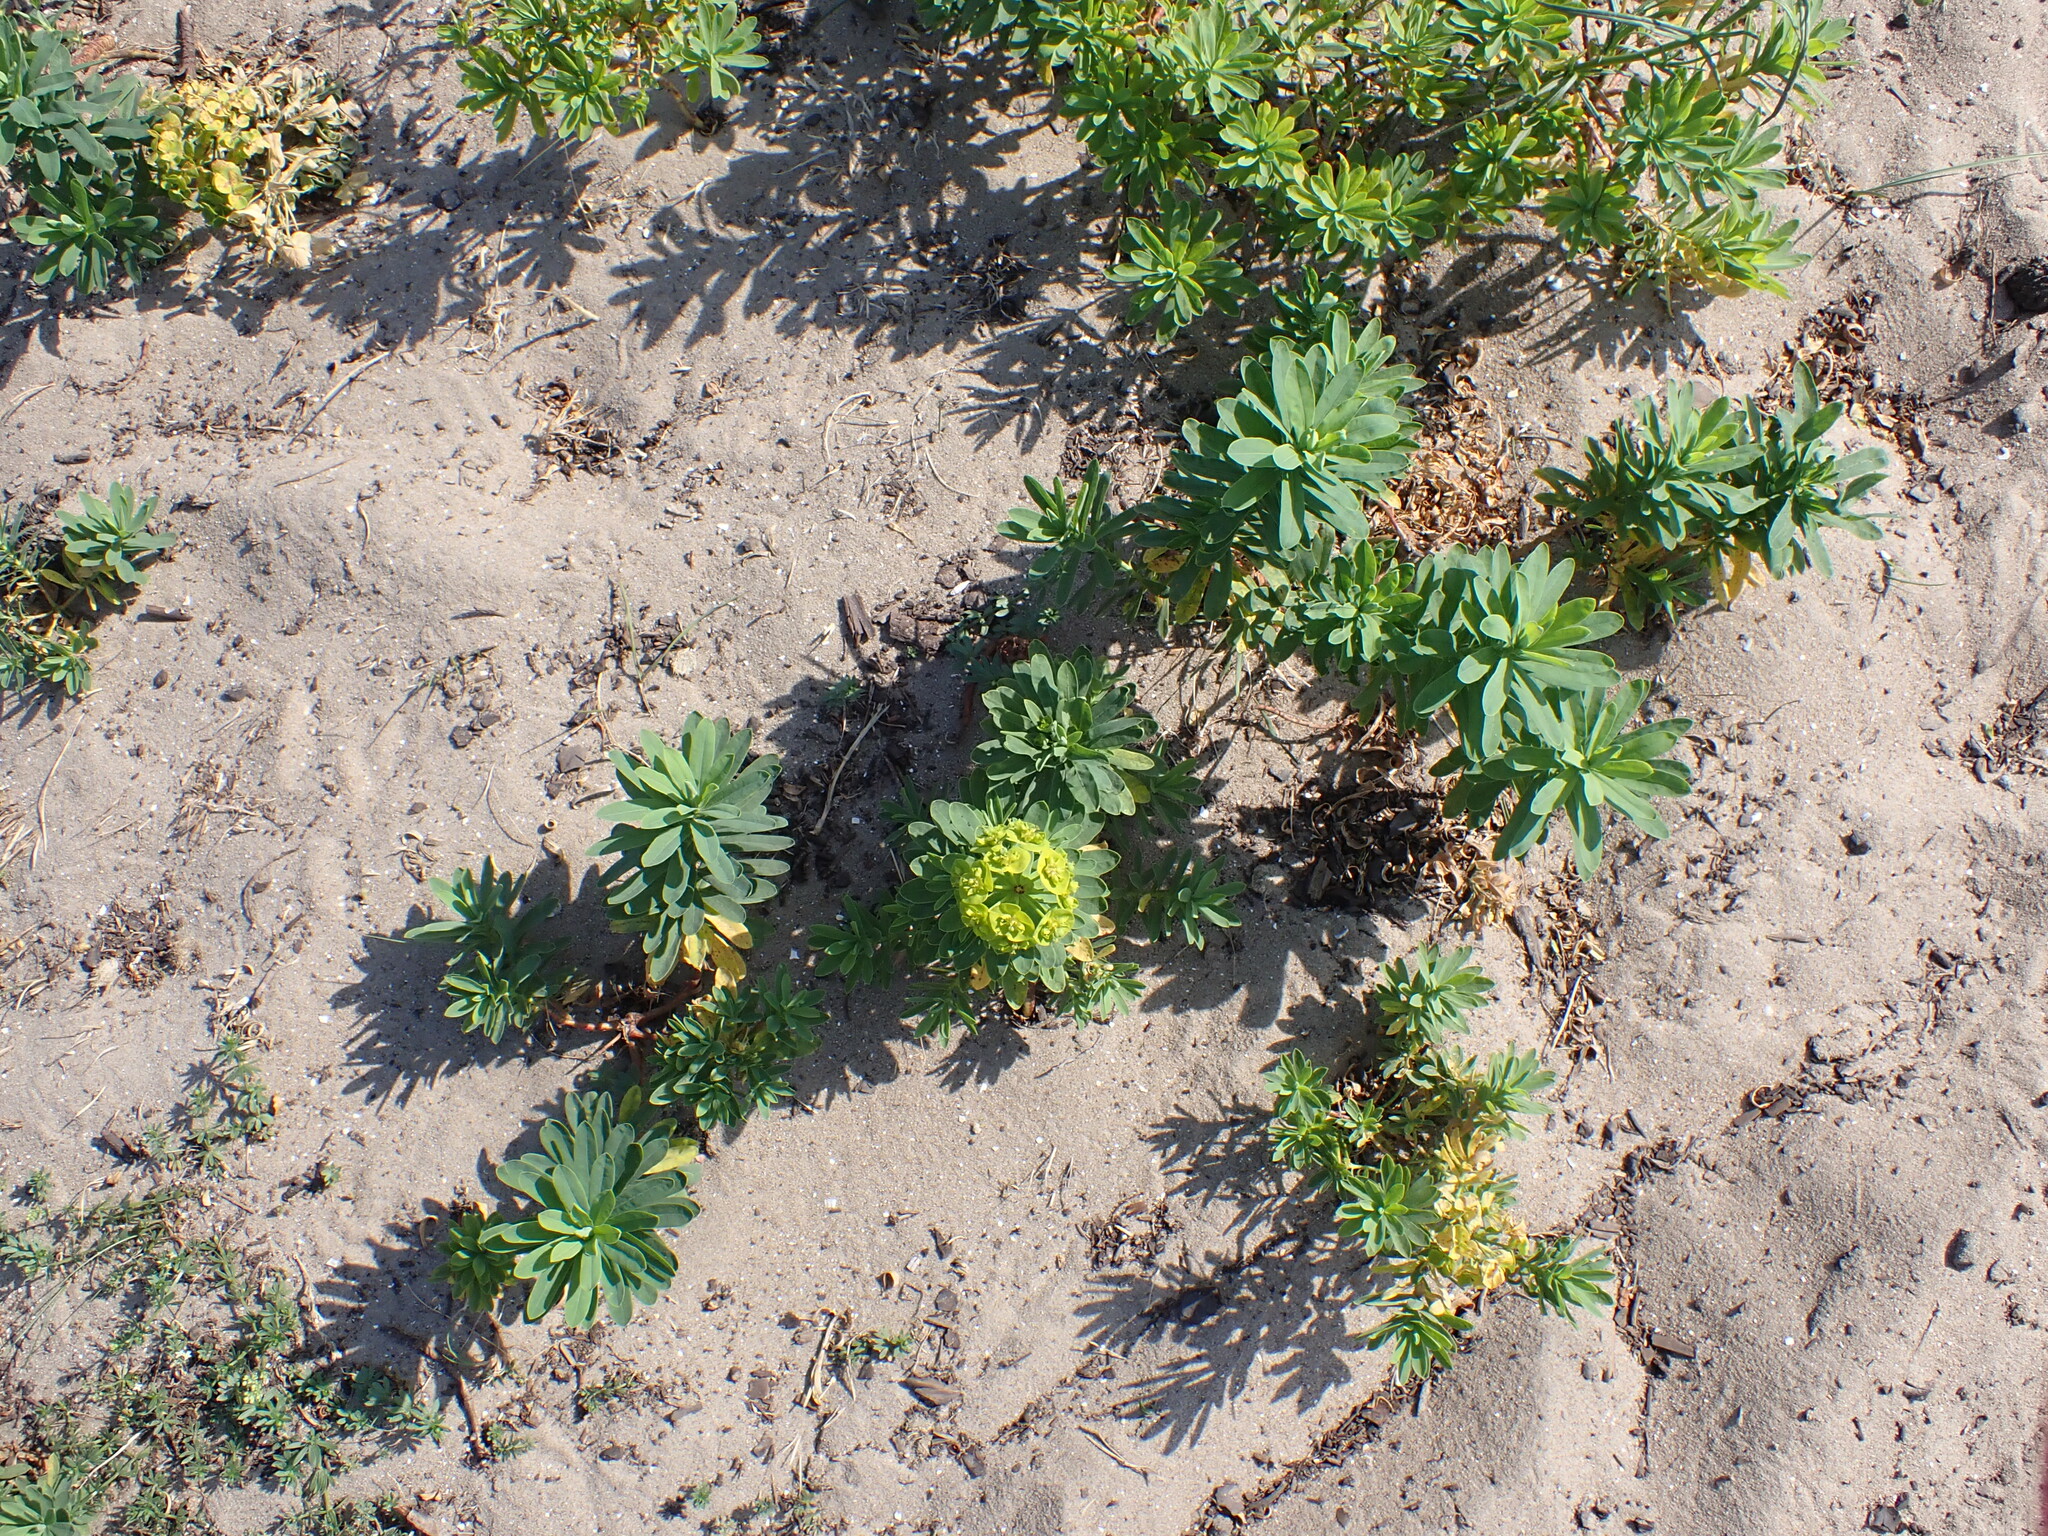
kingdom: Plantae
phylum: Tracheophyta
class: Magnoliopsida
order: Malpighiales
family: Euphorbiaceae
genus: Euphorbia
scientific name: Euphorbia esula
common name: Leafy spurge
